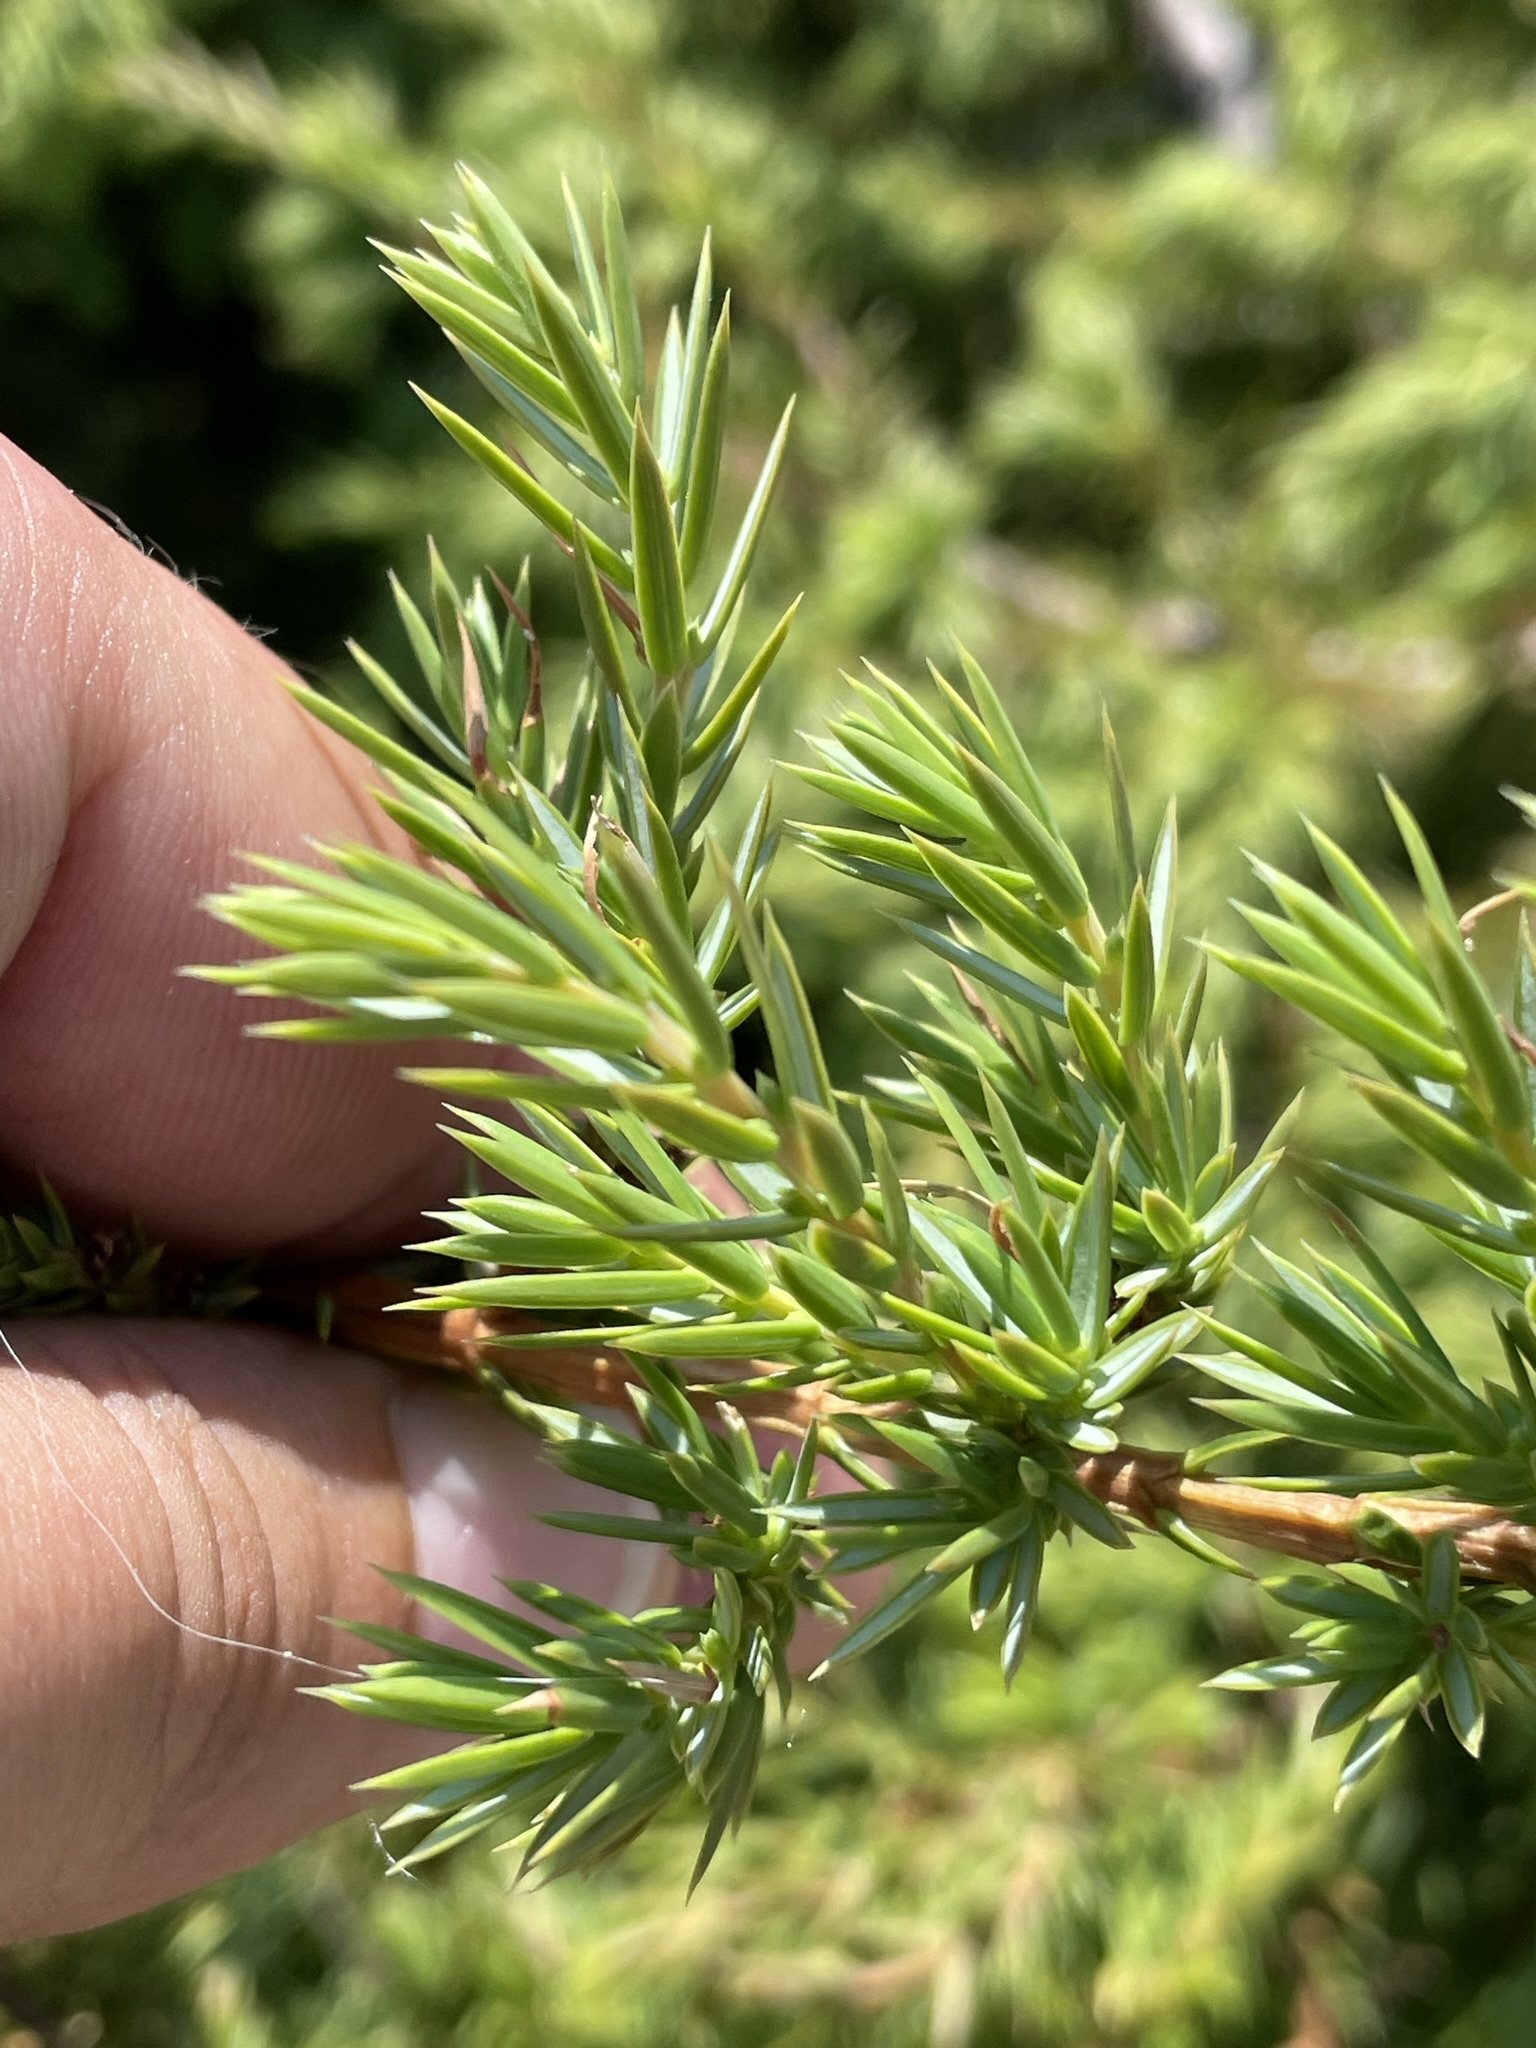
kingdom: Plantae
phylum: Tracheophyta
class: Pinopsida
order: Pinales
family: Cupressaceae
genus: Juniperus
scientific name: Juniperus communis
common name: Common juniper
